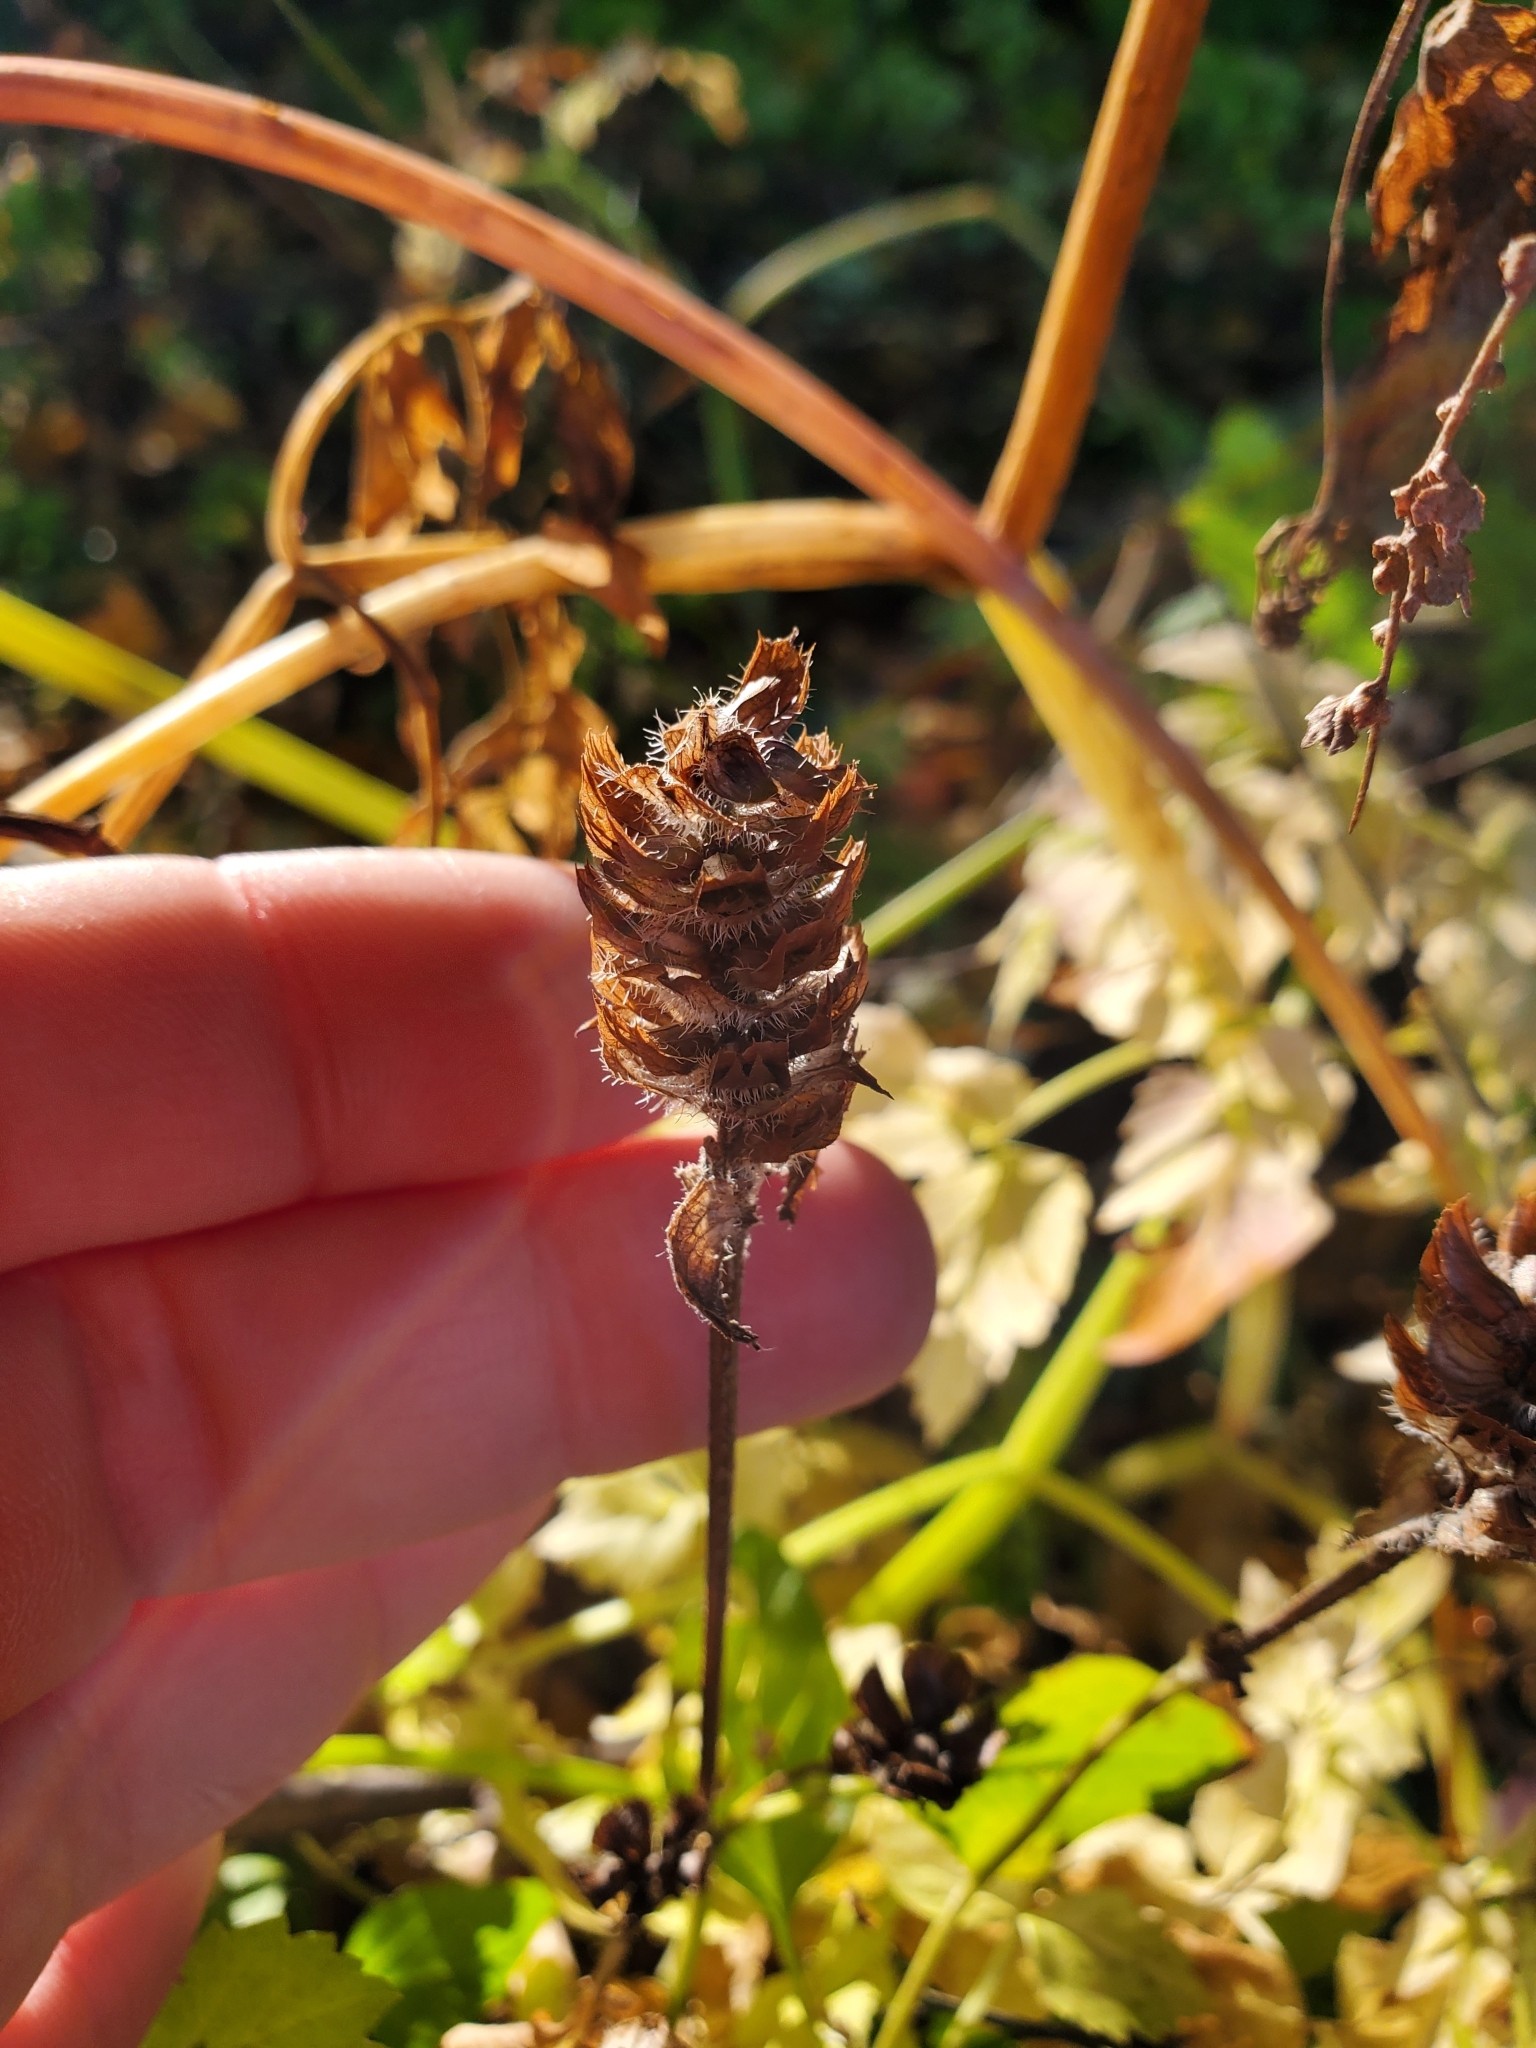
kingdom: Plantae
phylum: Tracheophyta
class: Magnoliopsida
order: Lamiales
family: Lamiaceae
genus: Prunella
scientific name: Prunella vulgaris
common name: Heal-all
